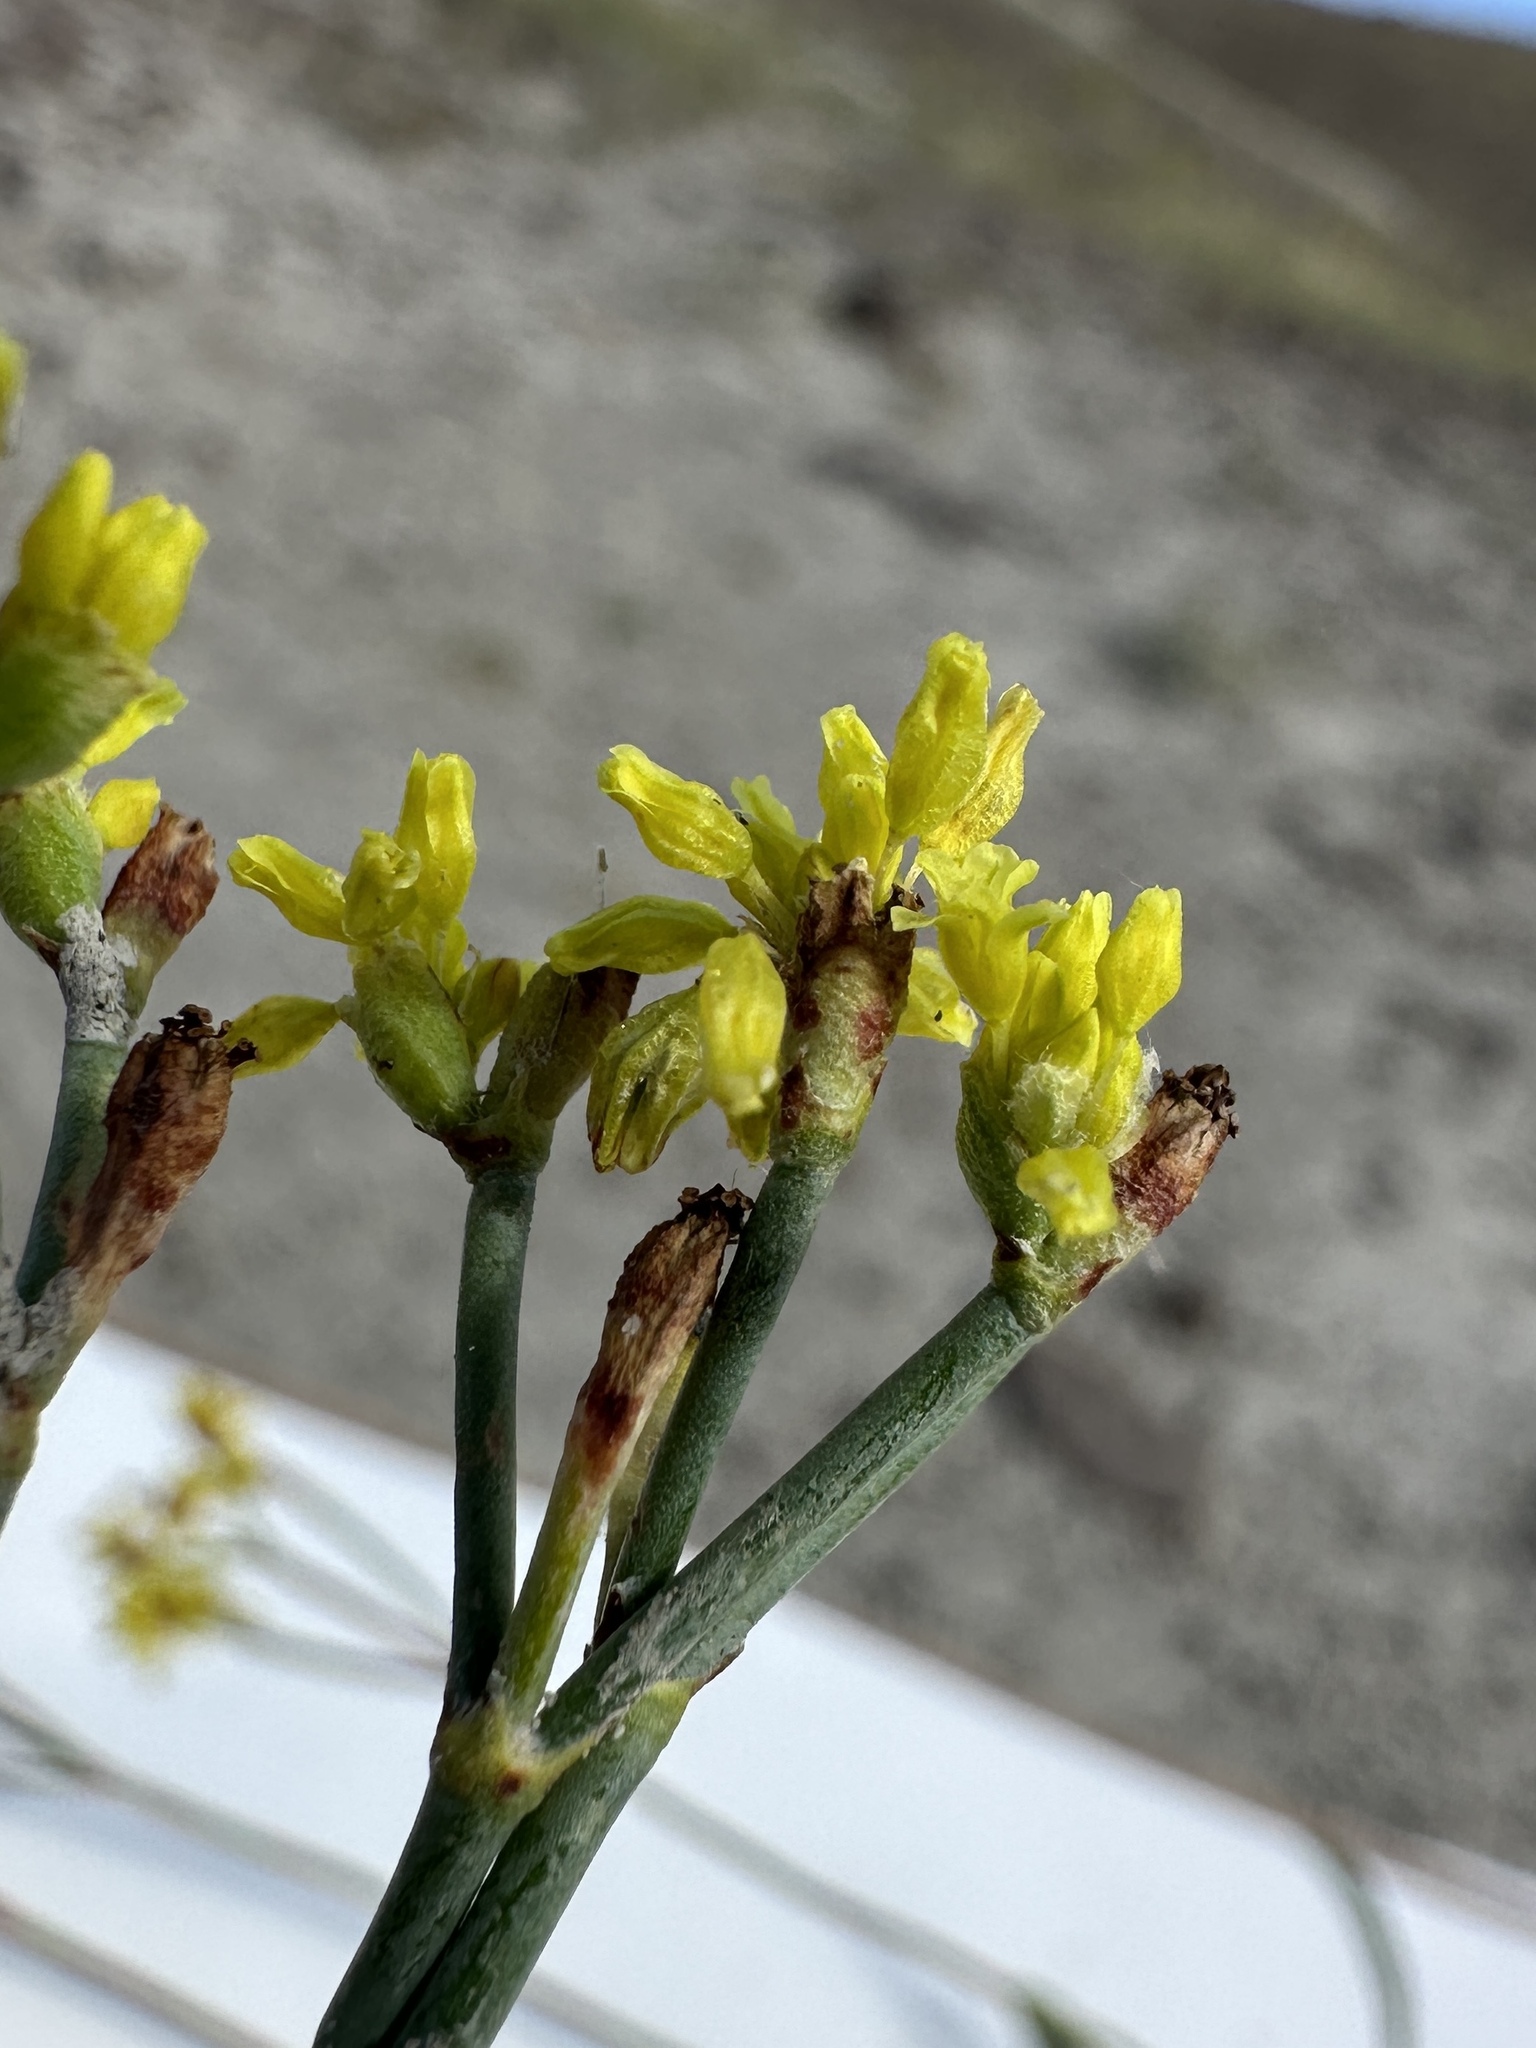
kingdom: Plantae
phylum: Tracheophyta
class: Magnoliopsida
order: Caryophyllales
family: Polygonaceae
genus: Eriogonum
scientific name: Eriogonum brevicaule
